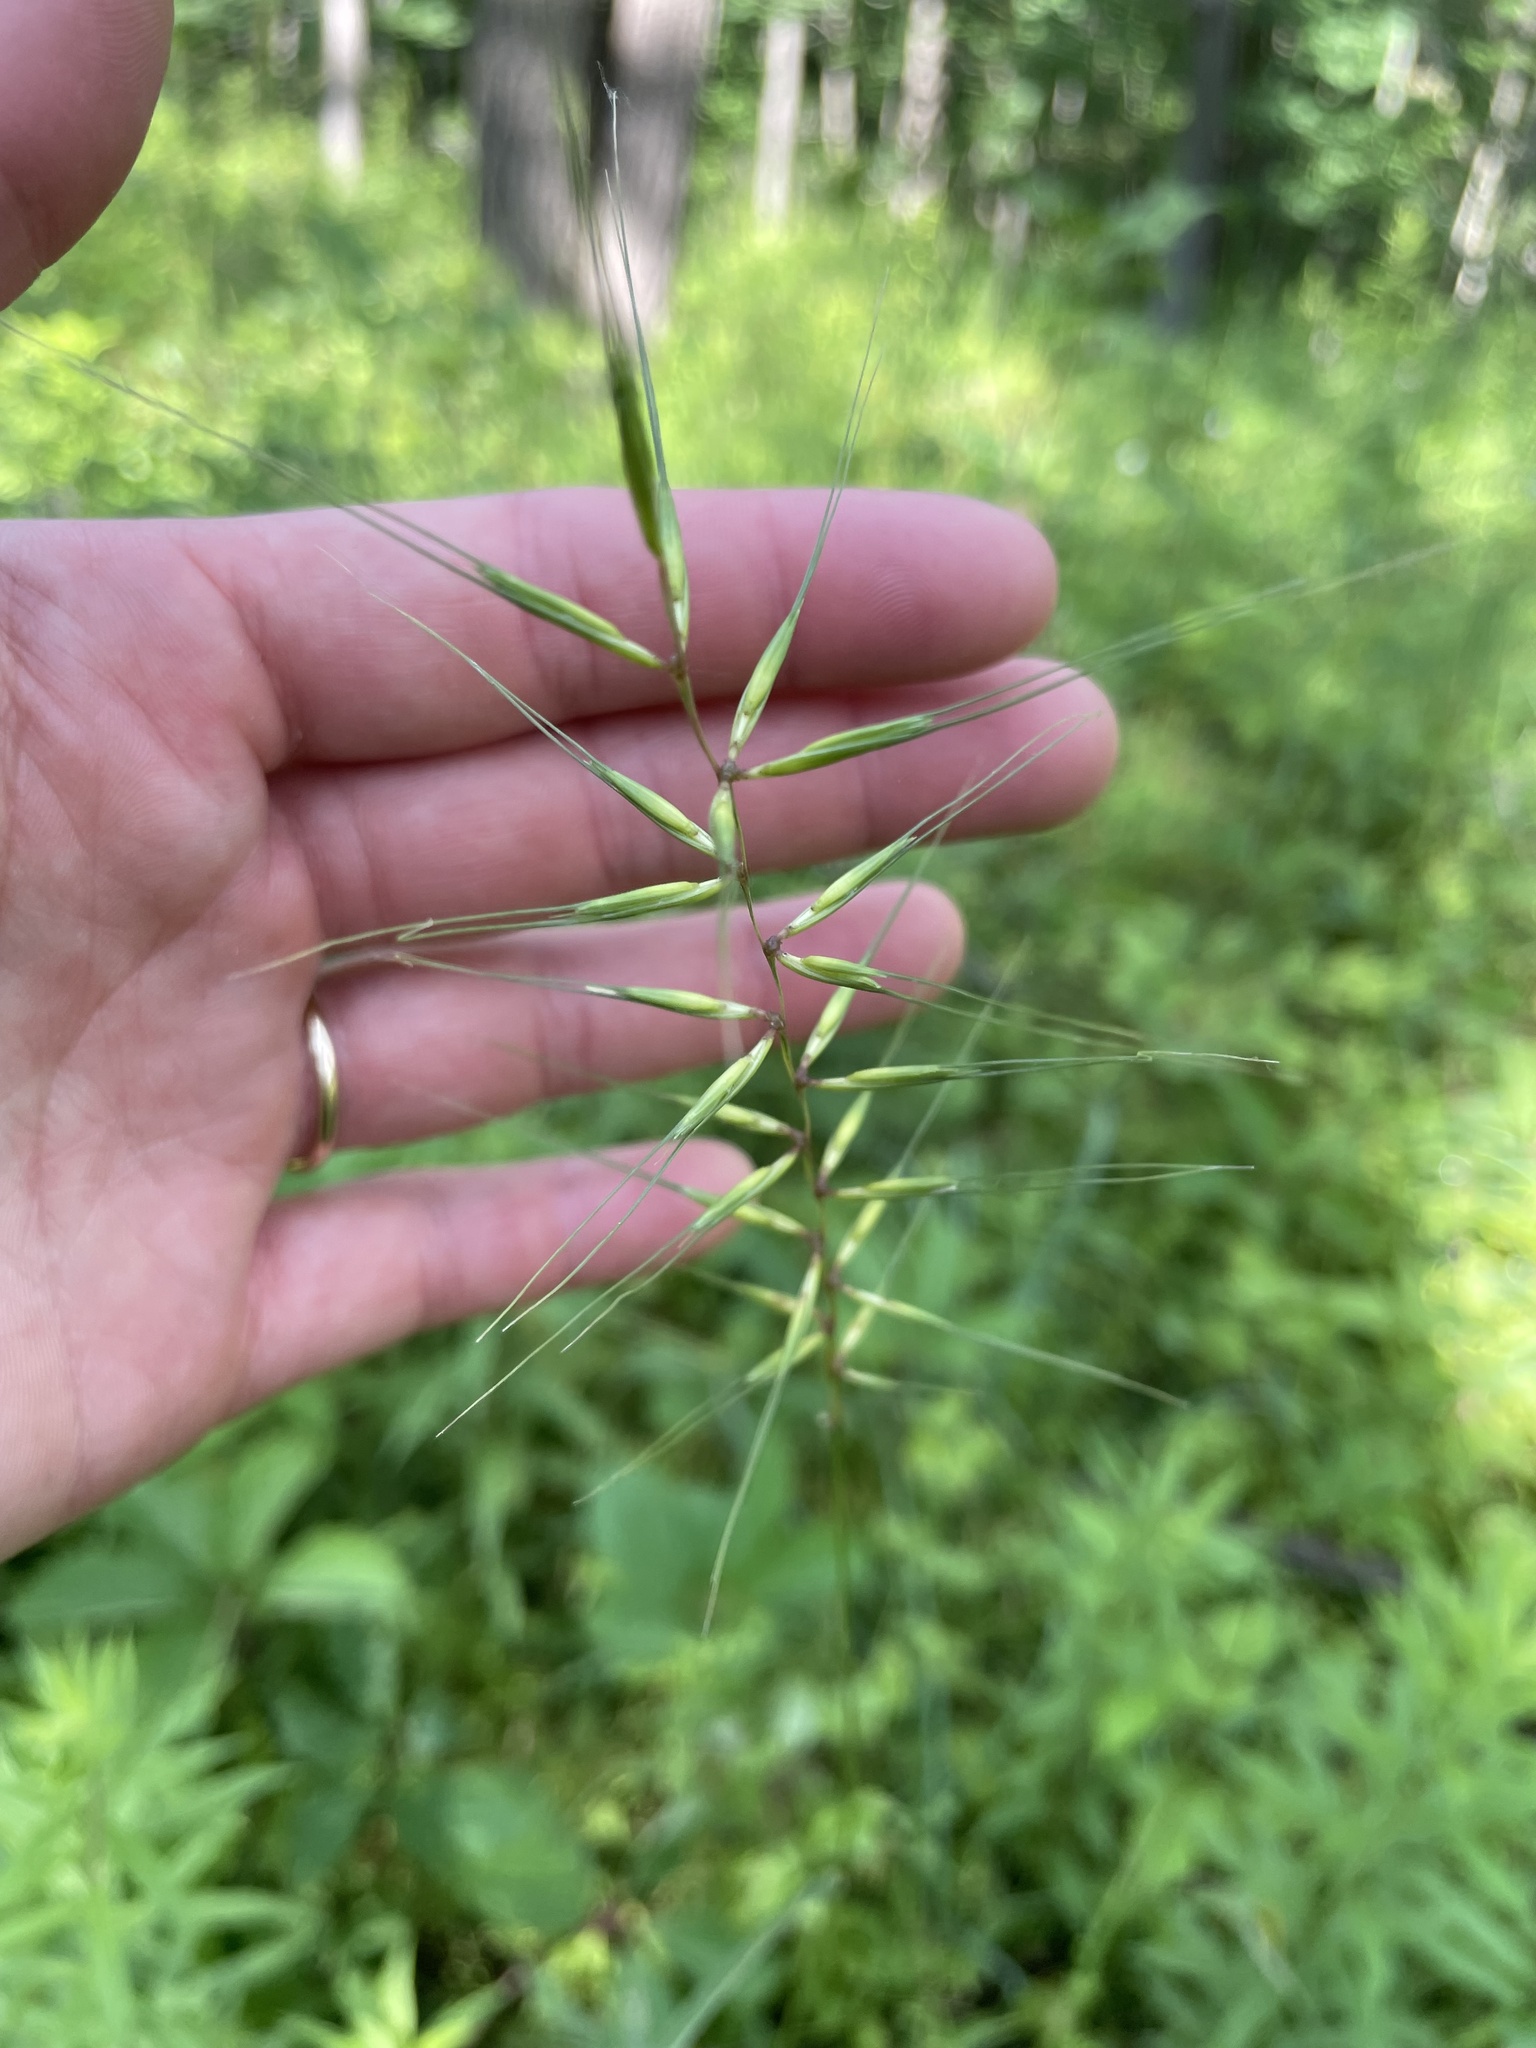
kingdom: Plantae
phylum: Tracheophyta
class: Liliopsida
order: Poales
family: Poaceae
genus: Elymus
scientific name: Elymus hystrix
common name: Bottlebrush grass
